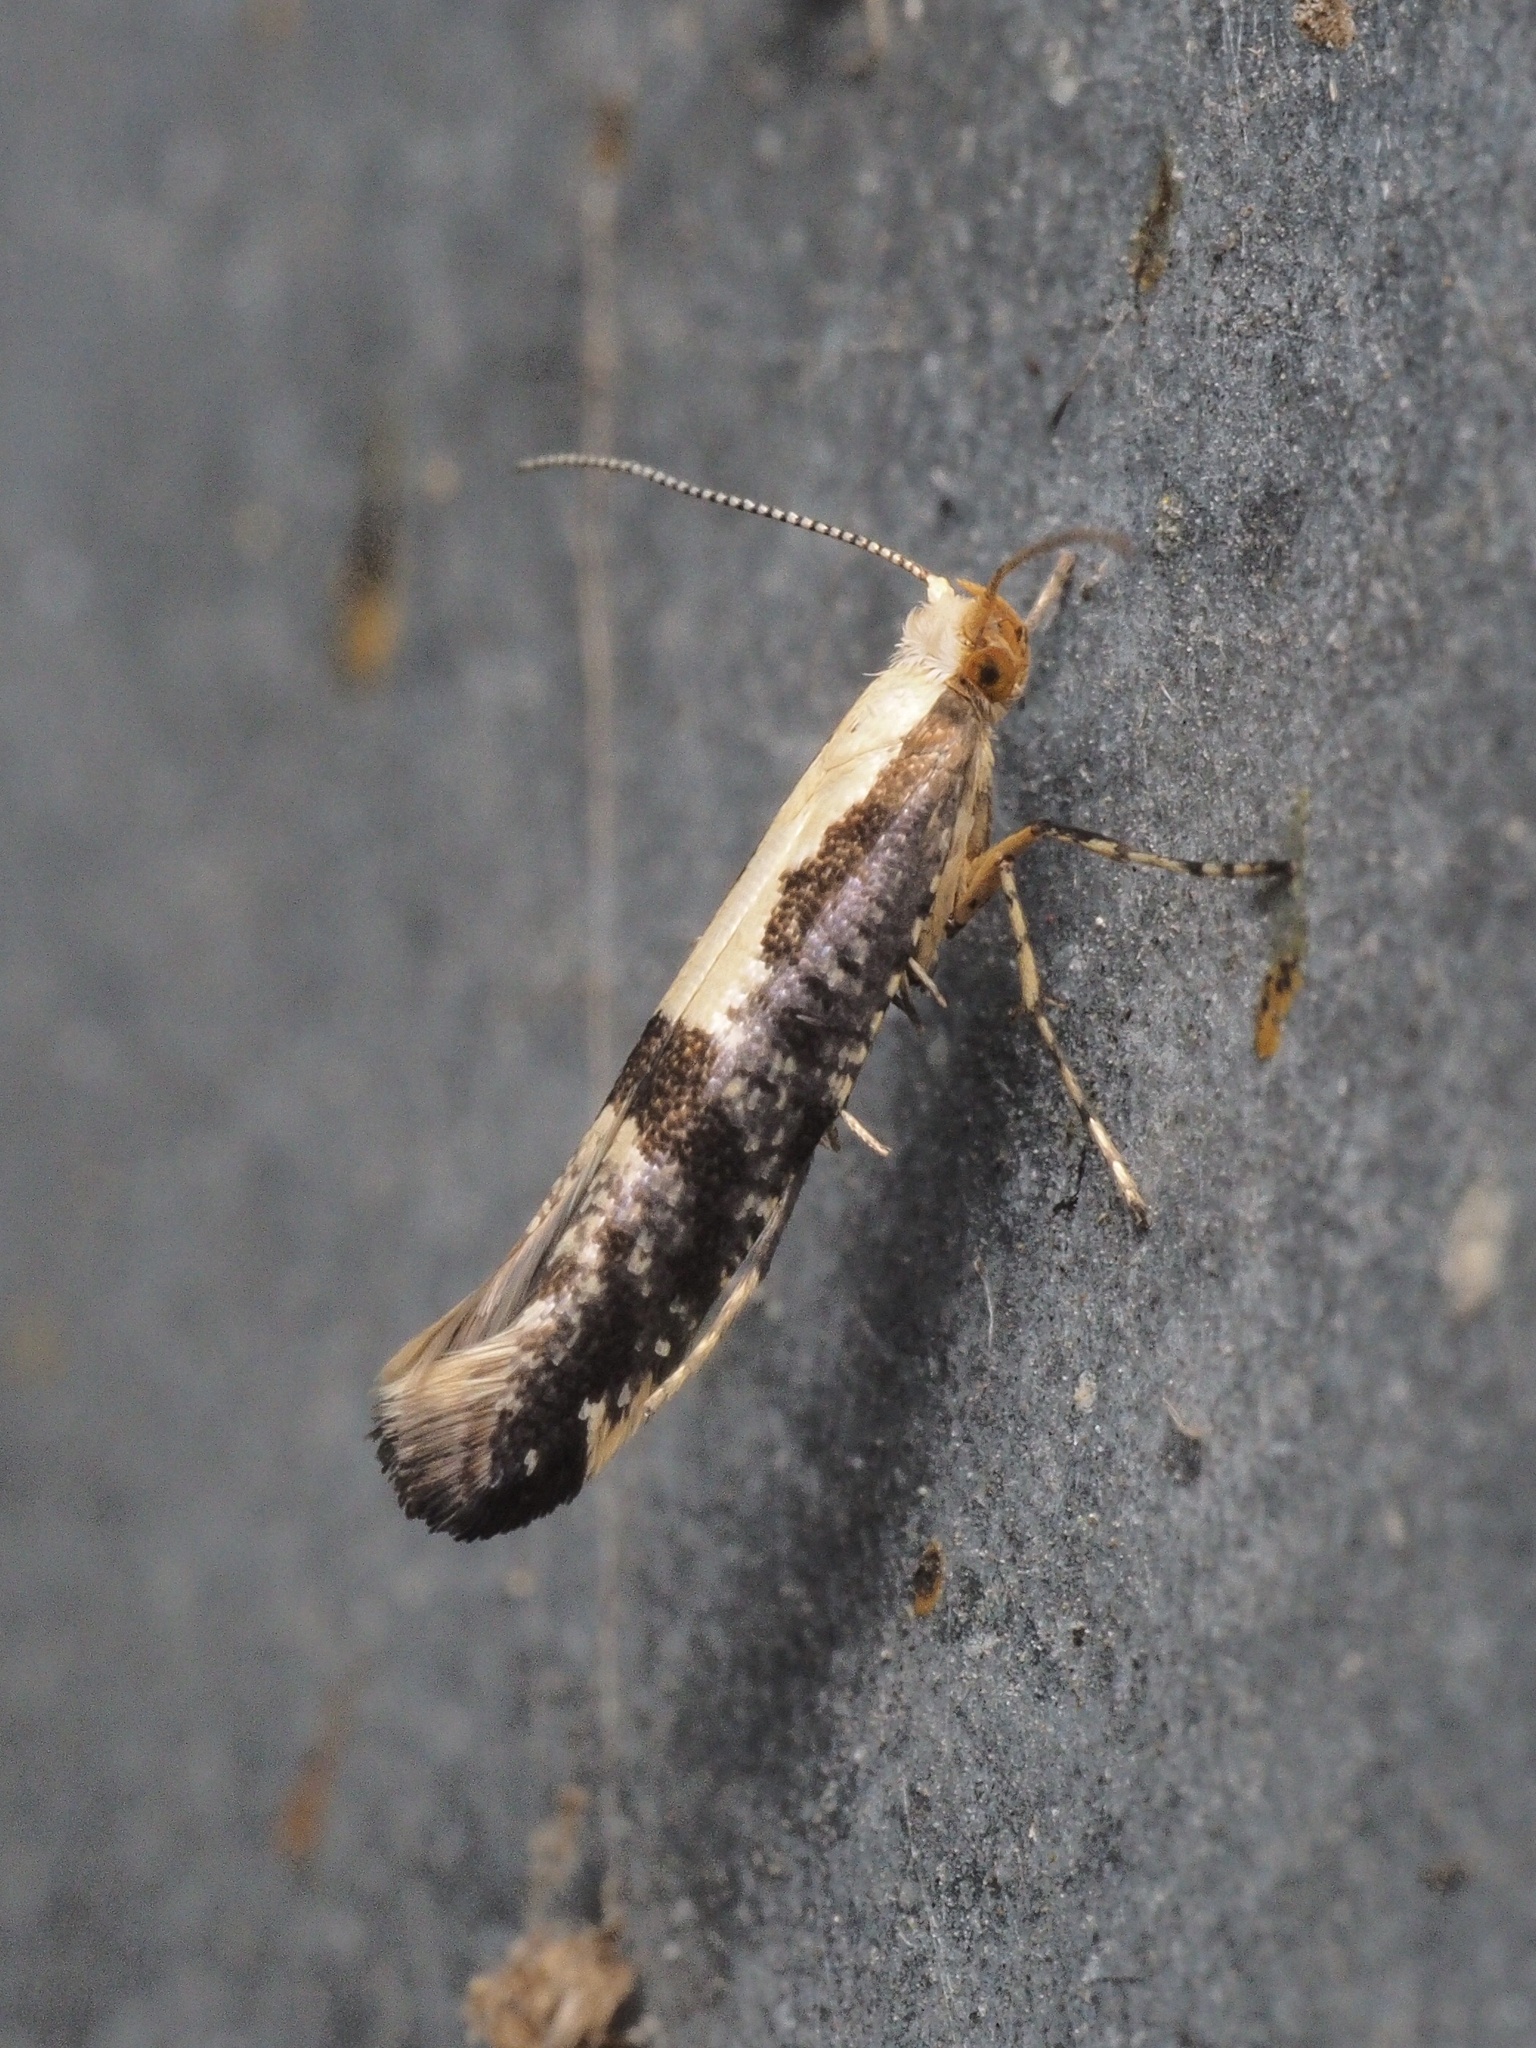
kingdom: Animalia
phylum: Arthropoda
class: Insecta
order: Lepidoptera
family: Argyresthiidae
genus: Argyresthia
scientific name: Argyresthia spinosella
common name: Blackthorn argent
